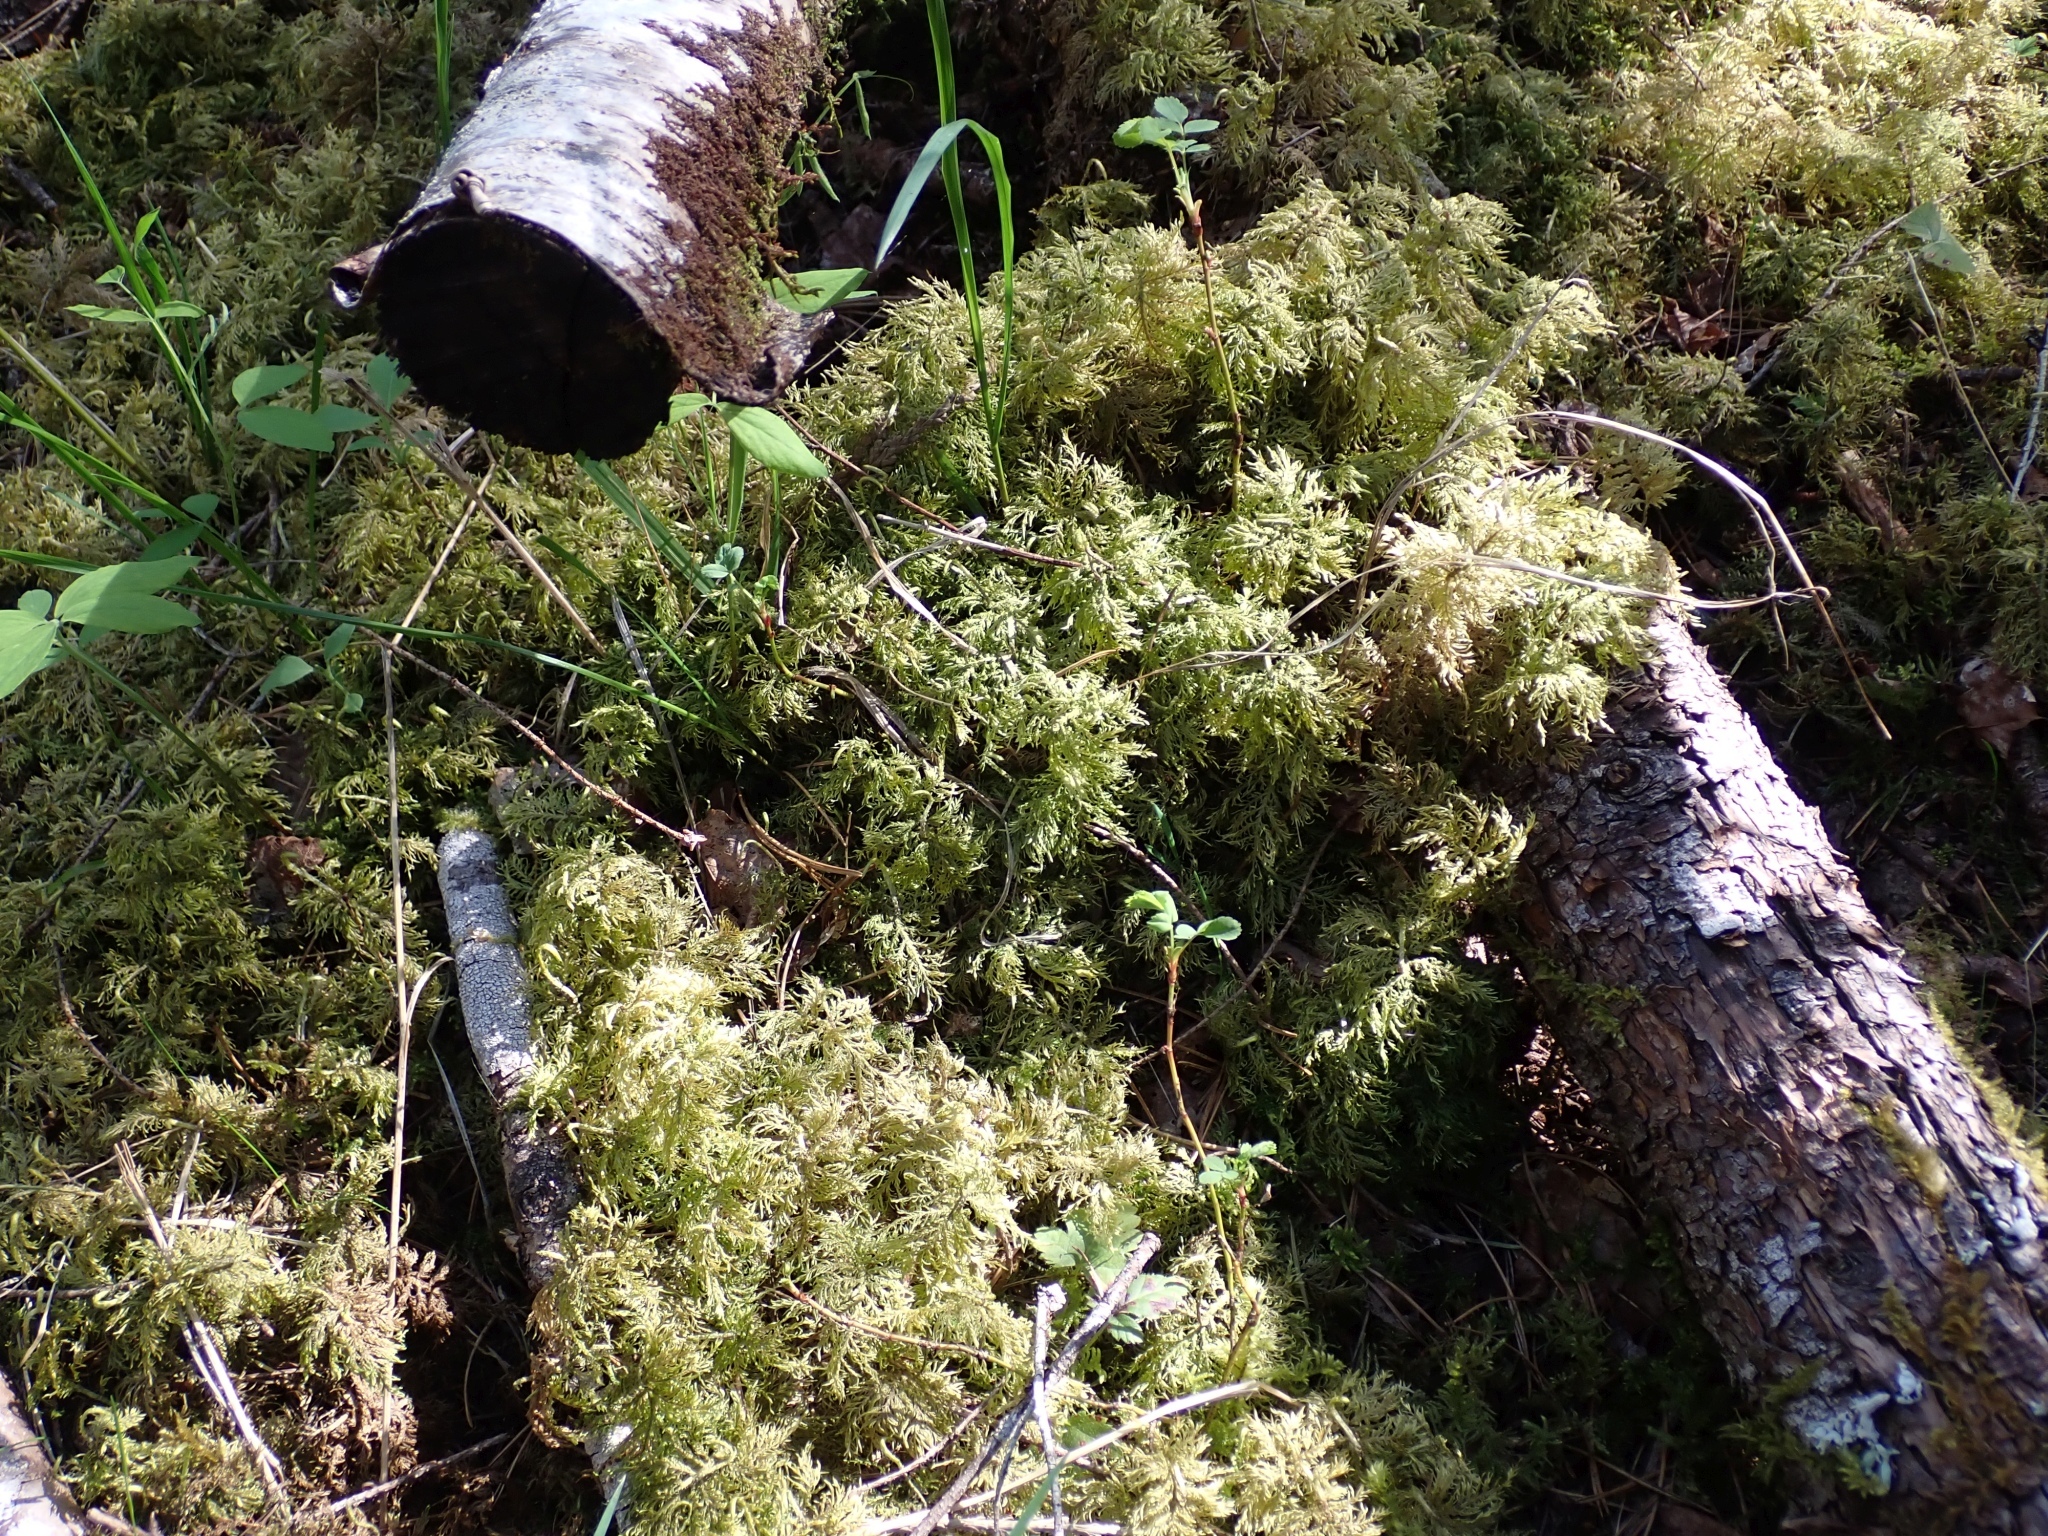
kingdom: Plantae
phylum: Bryophyta
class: Bryopsida
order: Hypnales
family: Hylocomiaceae
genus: Hylocomium
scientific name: Hylocomium splendens
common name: Stairstep moss
